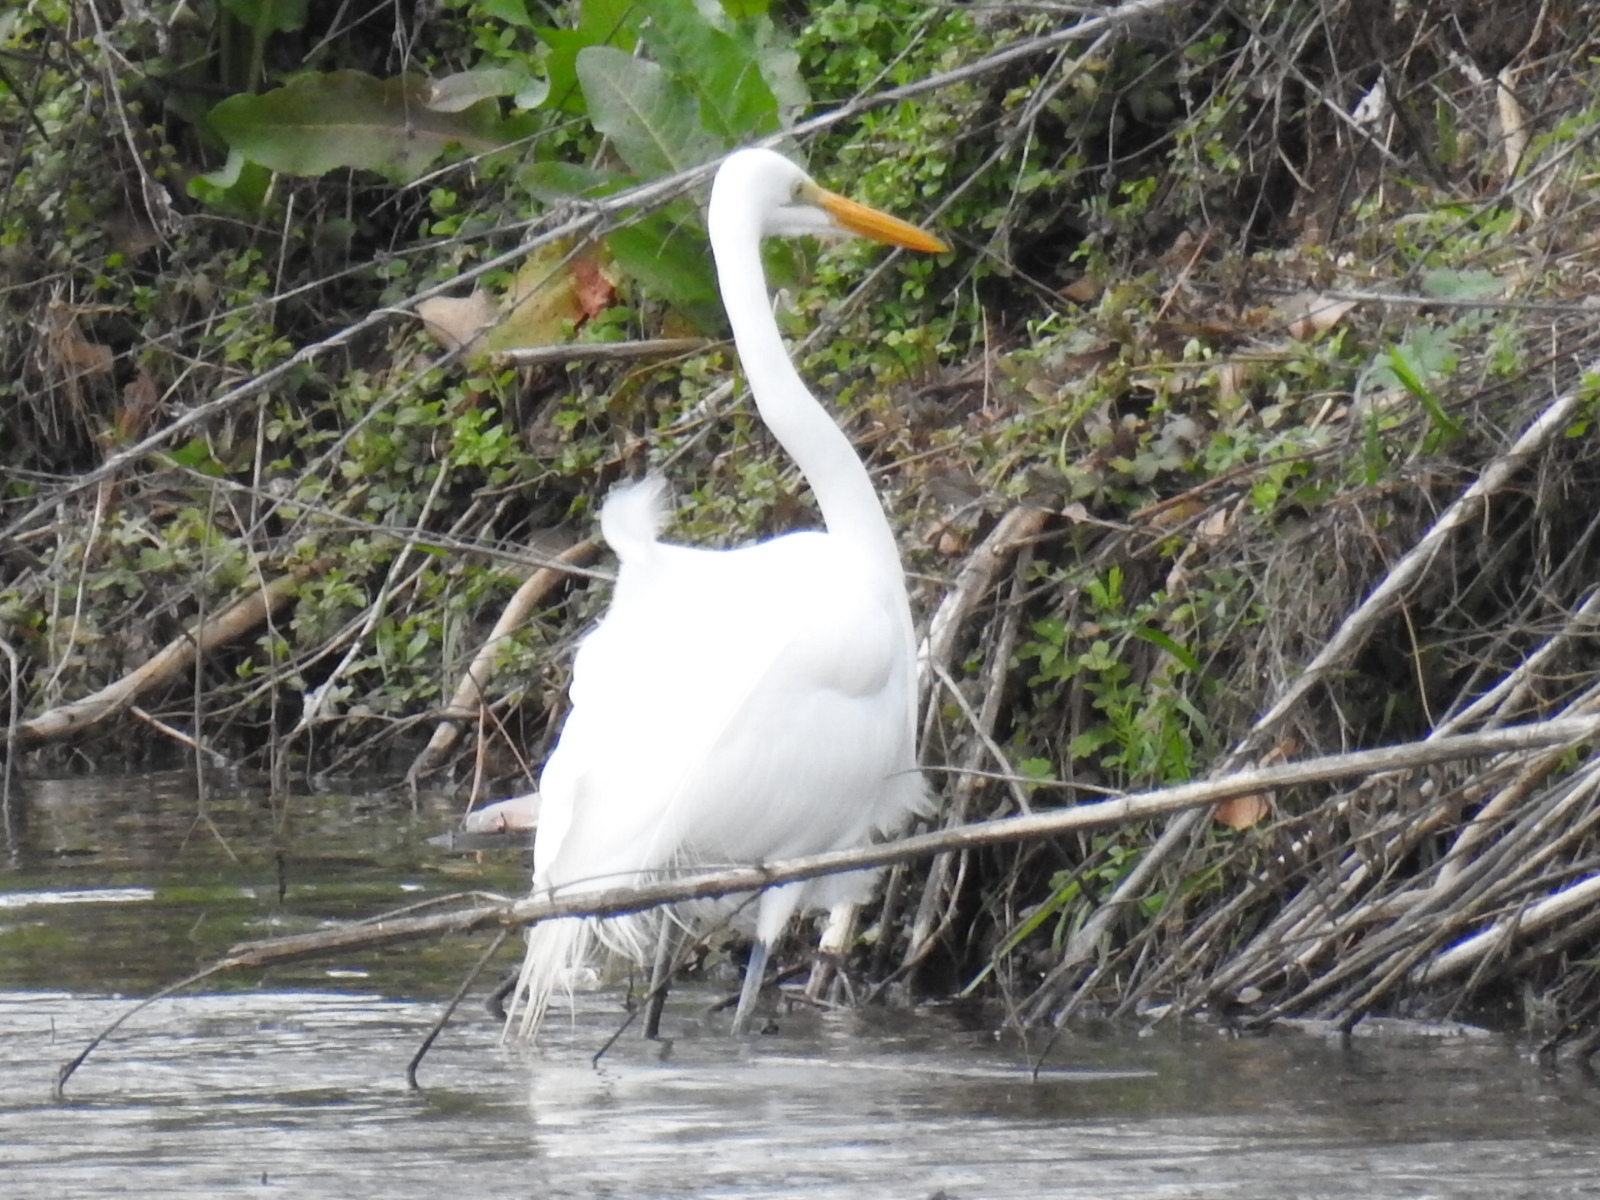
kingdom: Animalia
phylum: Chordata
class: Aves
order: Pelecaniformes
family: Ardeidae
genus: Ardea
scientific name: Ardea alba
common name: Great egret
